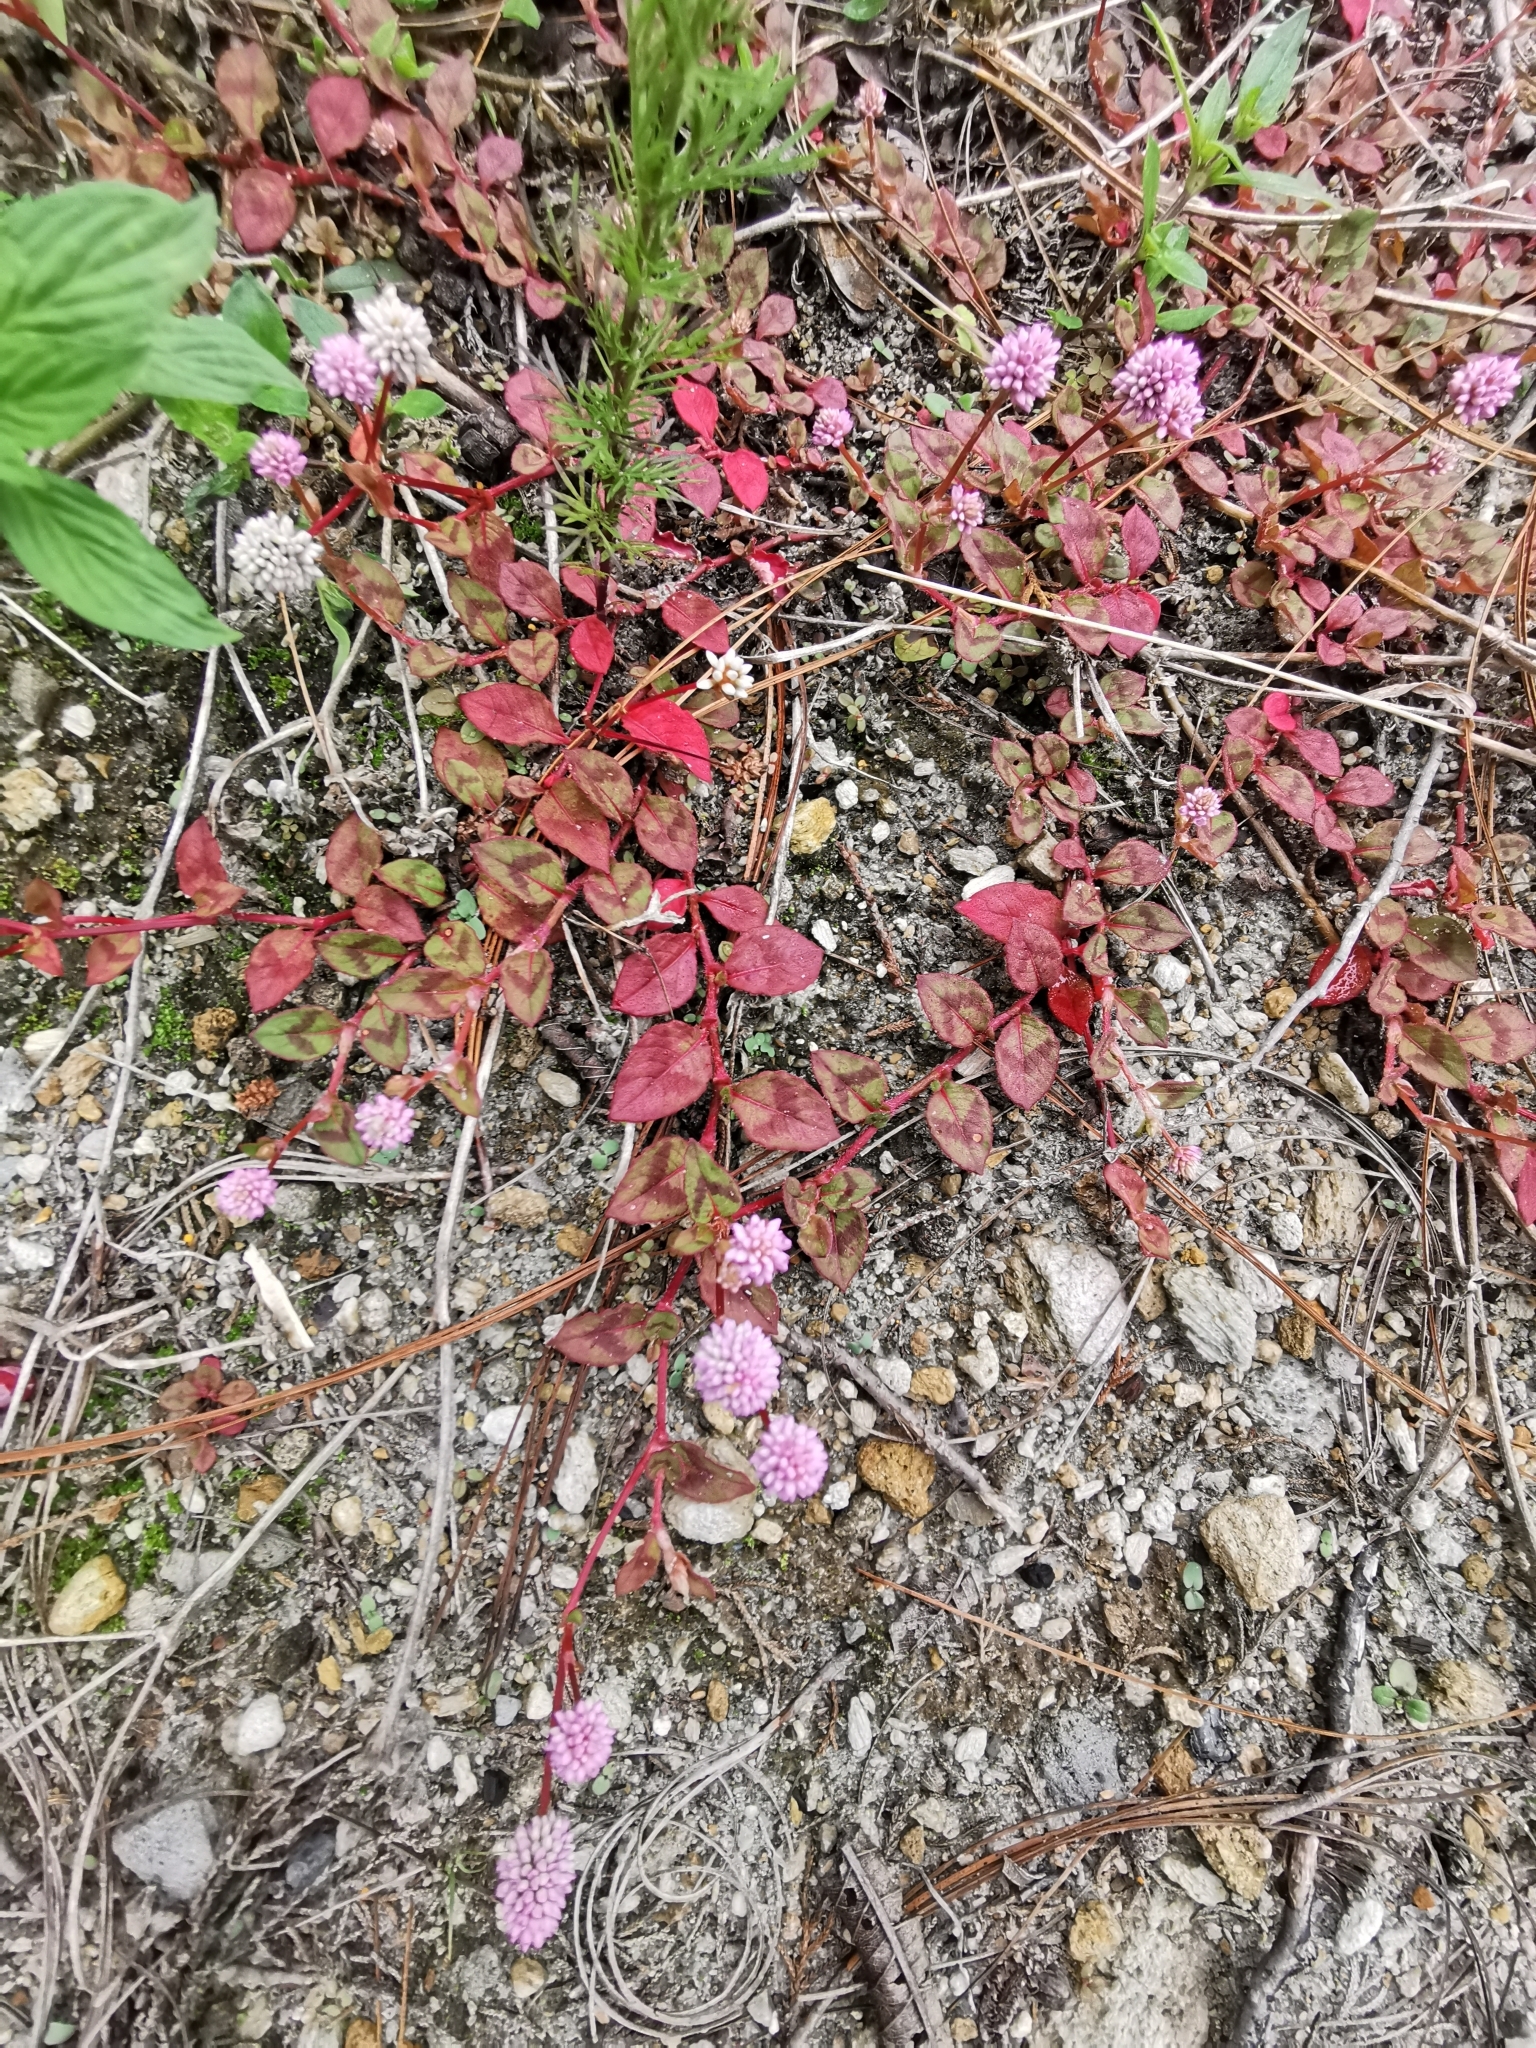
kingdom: Plantae
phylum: Tracheophyta
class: Magnoliopsida
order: Caryophyllales
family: Polygonaceae
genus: Persicaria
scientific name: Persicaria capitata
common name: Pinkhead smartweed
